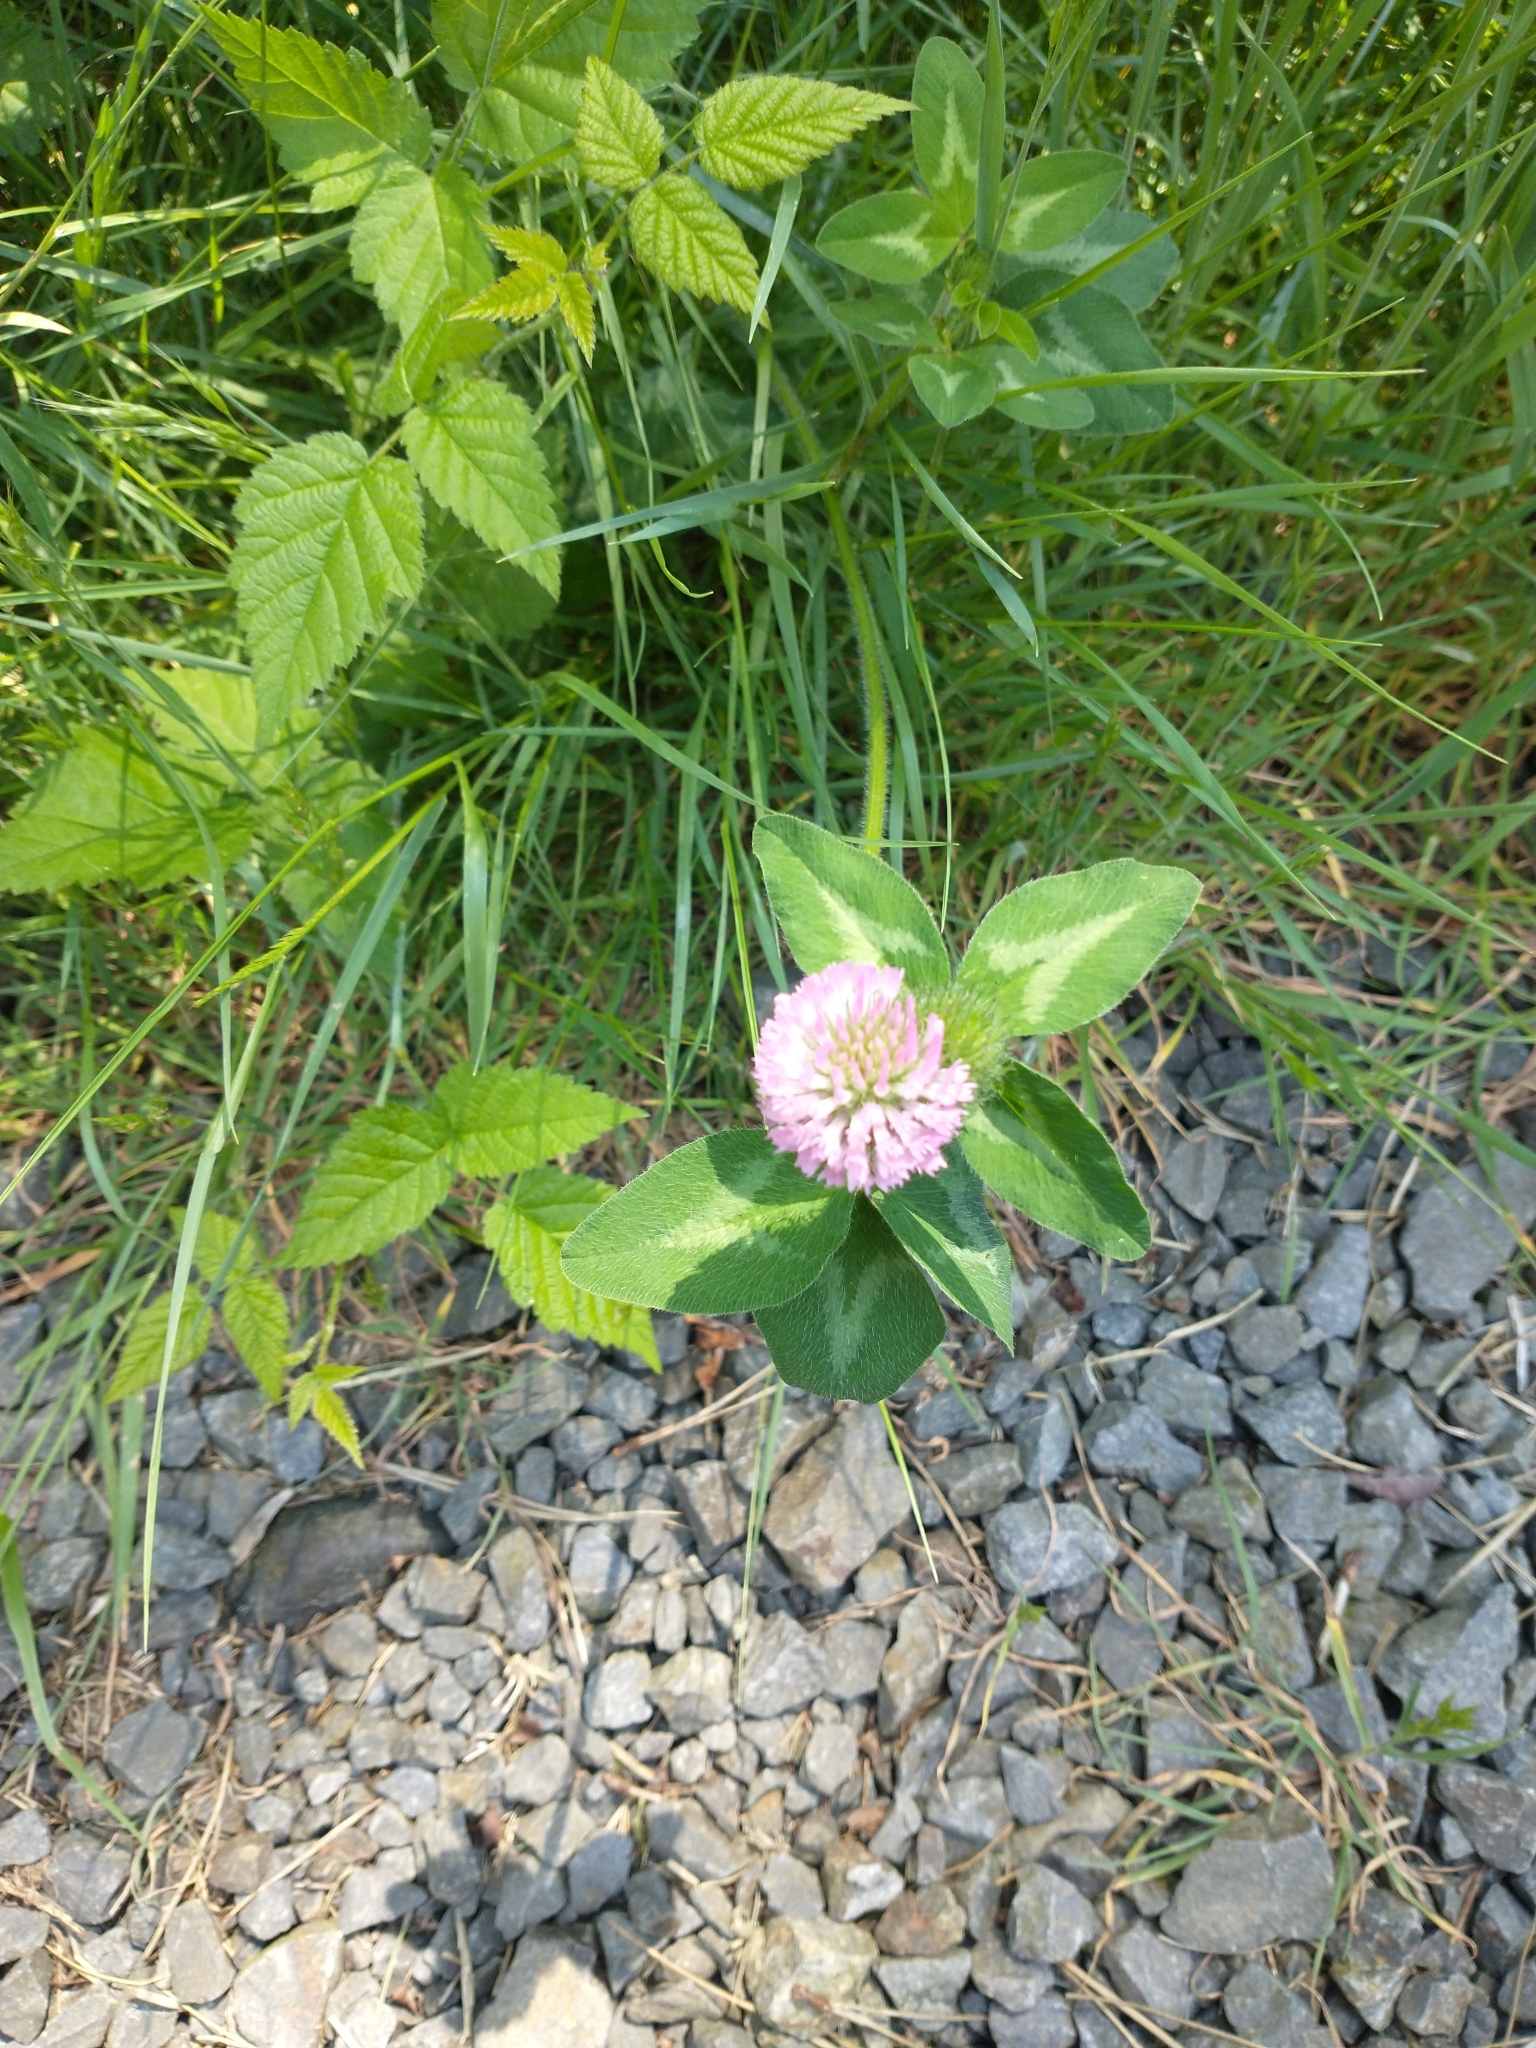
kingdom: Plantae
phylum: Tracheophyta
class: Magnoliopsida
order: Fabales
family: Fabaceae
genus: Trifolium
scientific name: Trifolium pratense
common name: Red clover
